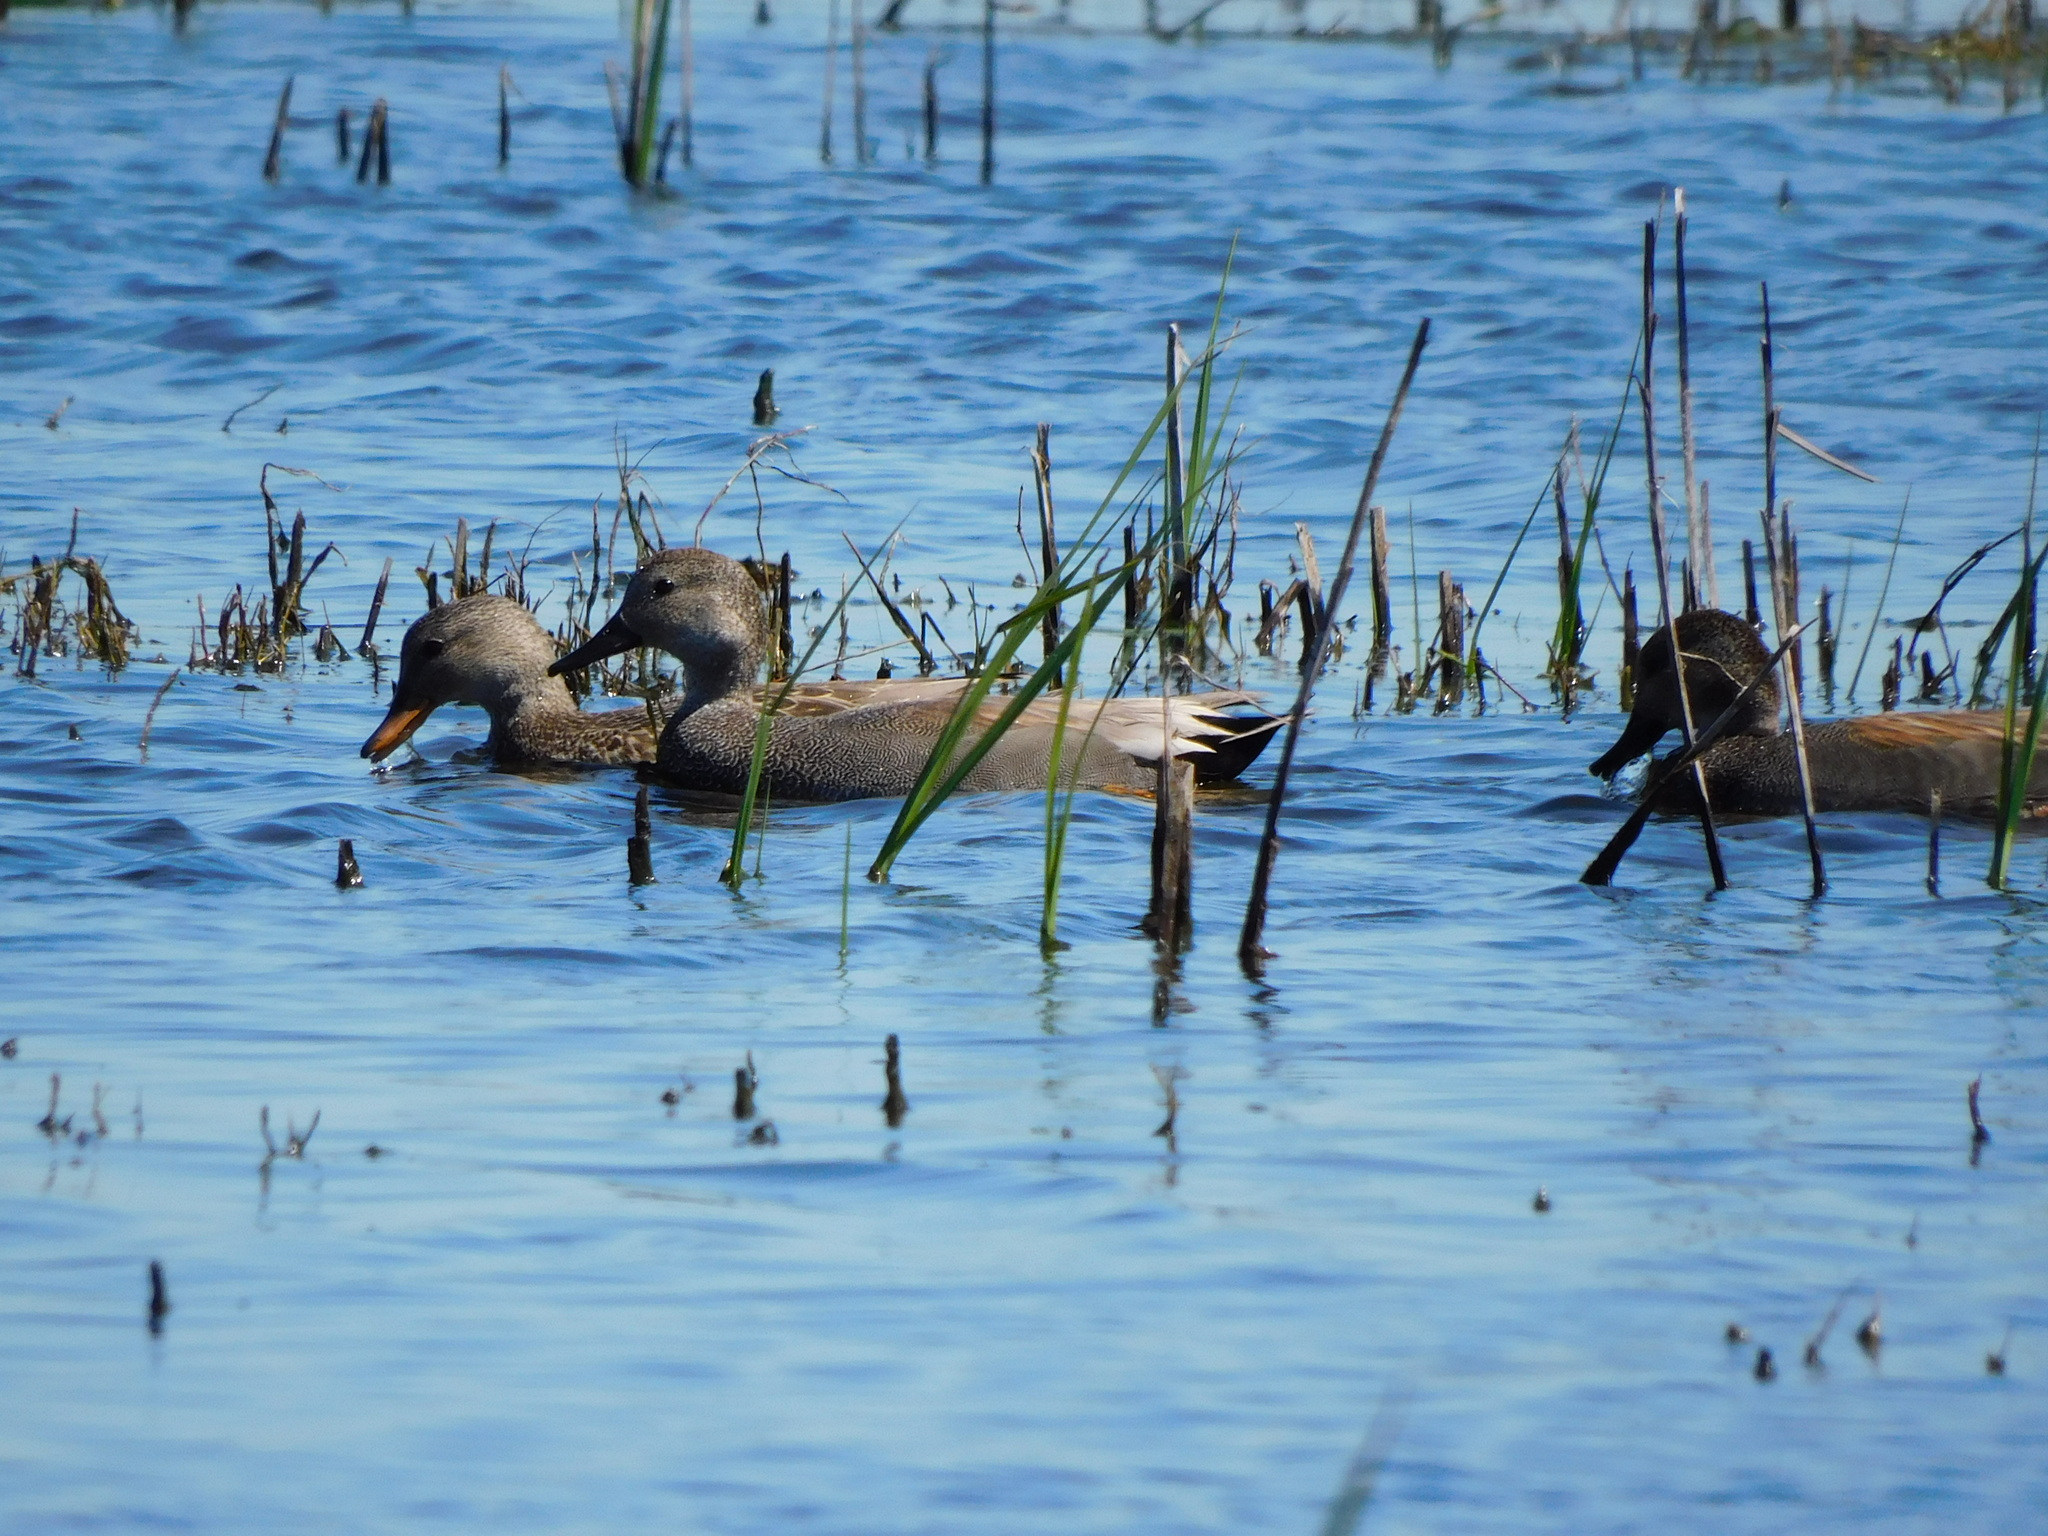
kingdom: Animalia
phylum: Chordata
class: Aves
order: Anseriformes
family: Anatidae
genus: Mareca
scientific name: Mareca strepera
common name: Gadwall
